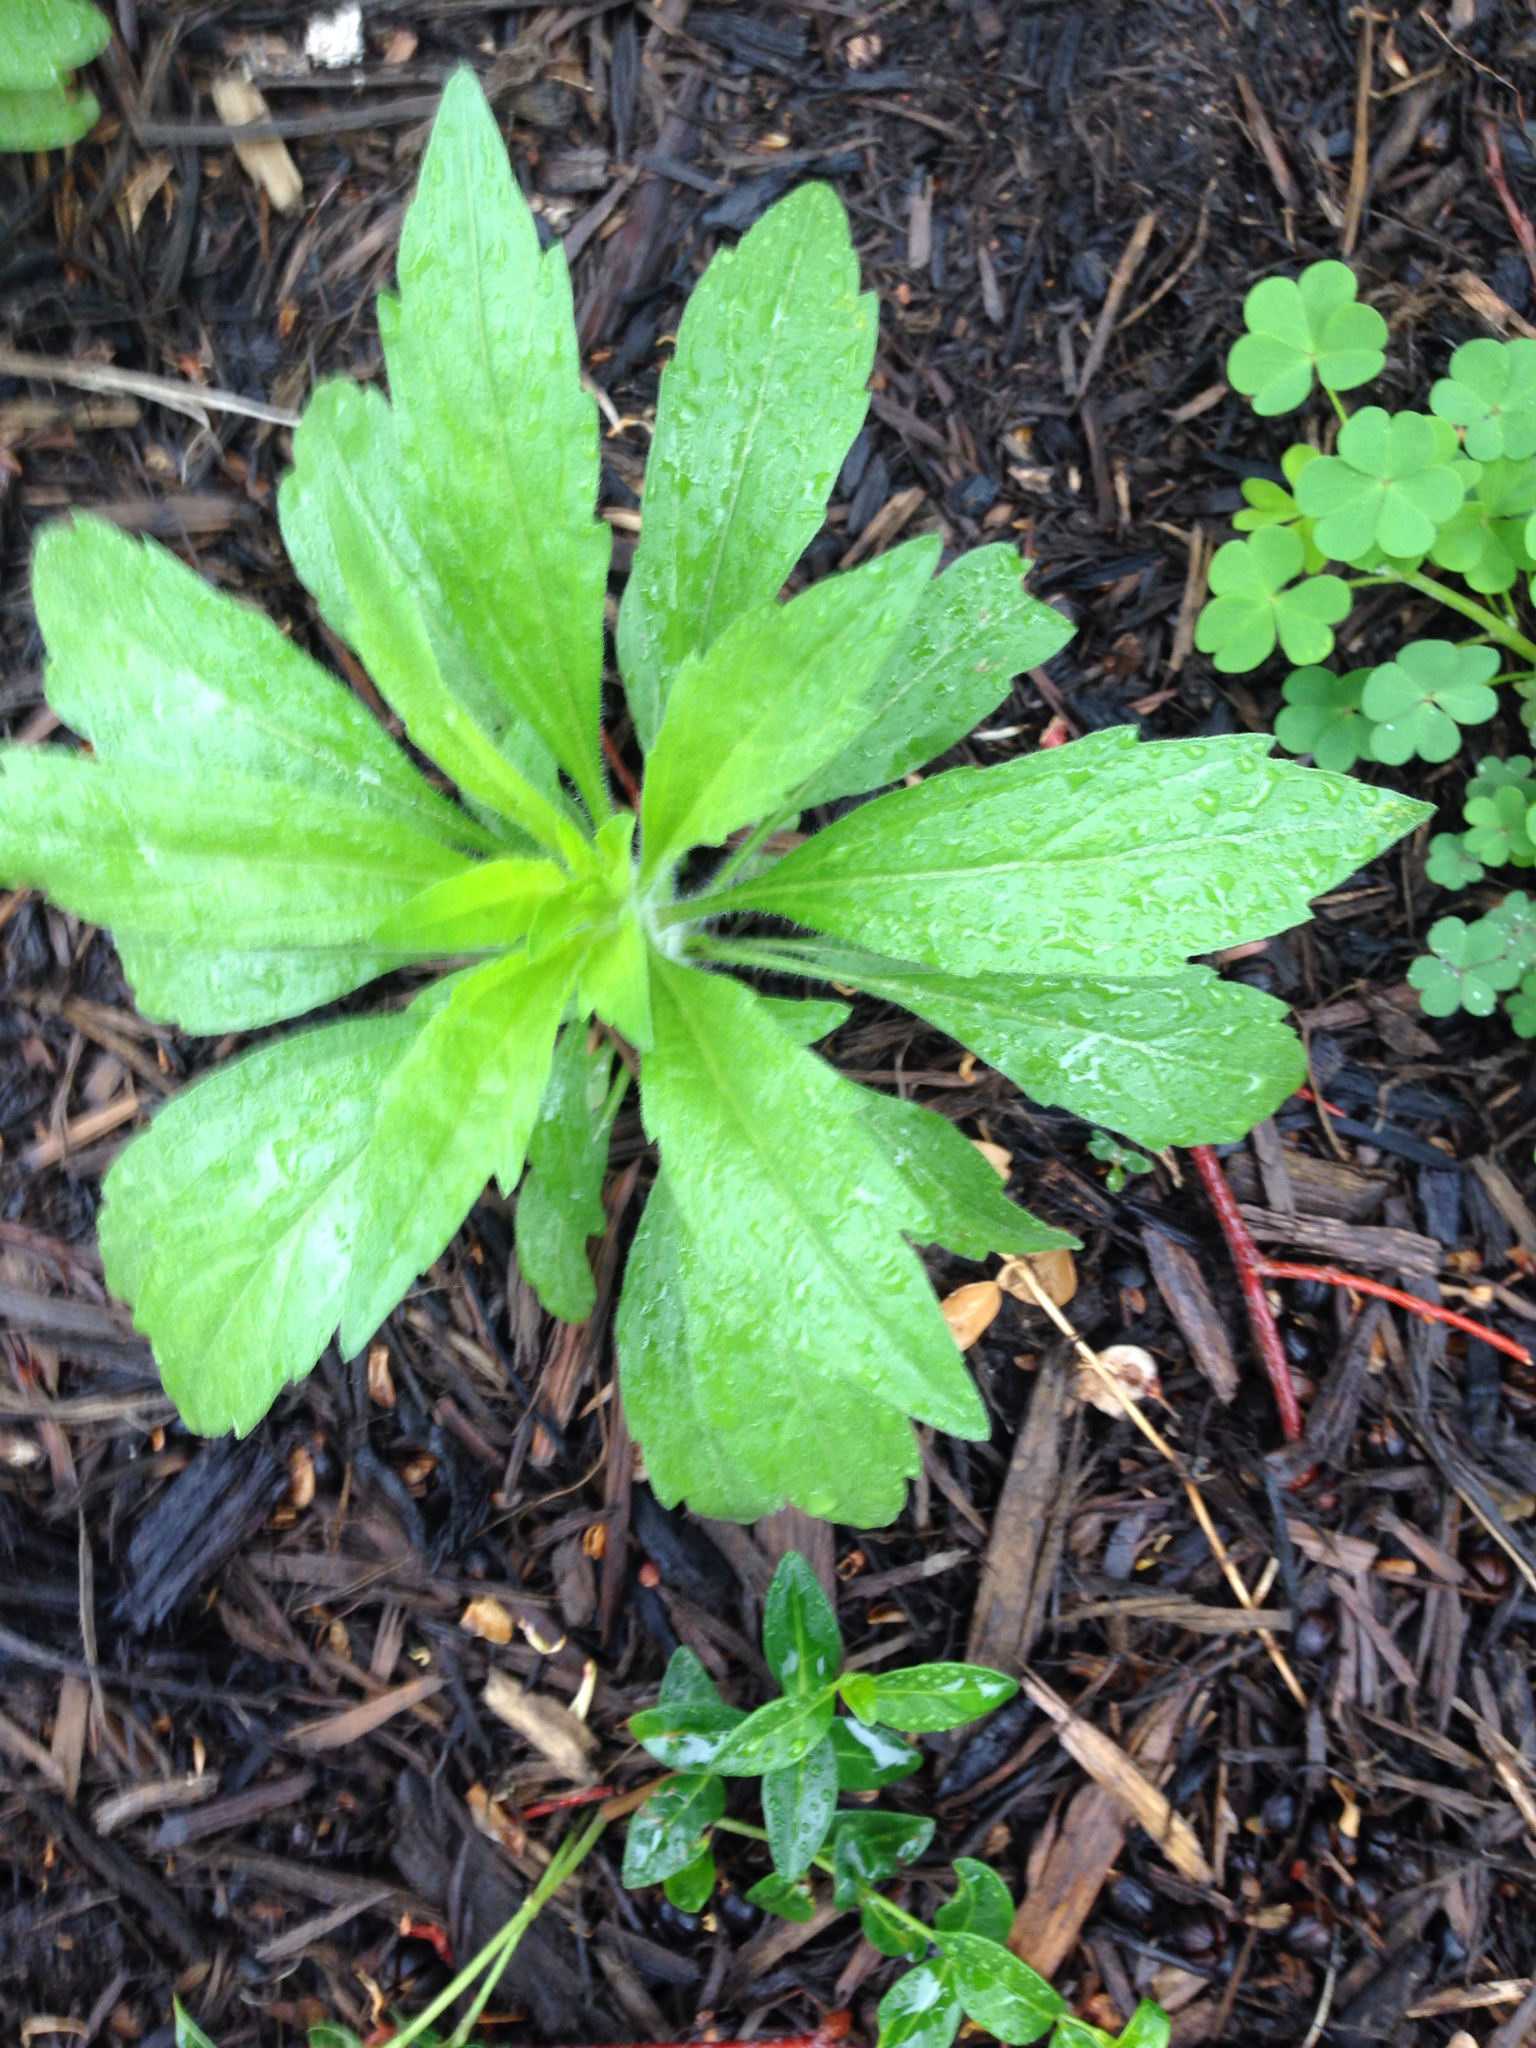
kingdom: Plantae
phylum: Tracheophyta
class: Magnoliopsida
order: Asterales
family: Asteraceae
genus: Erigeron
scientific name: Erigeron canadensis
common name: Canadian fleabane
